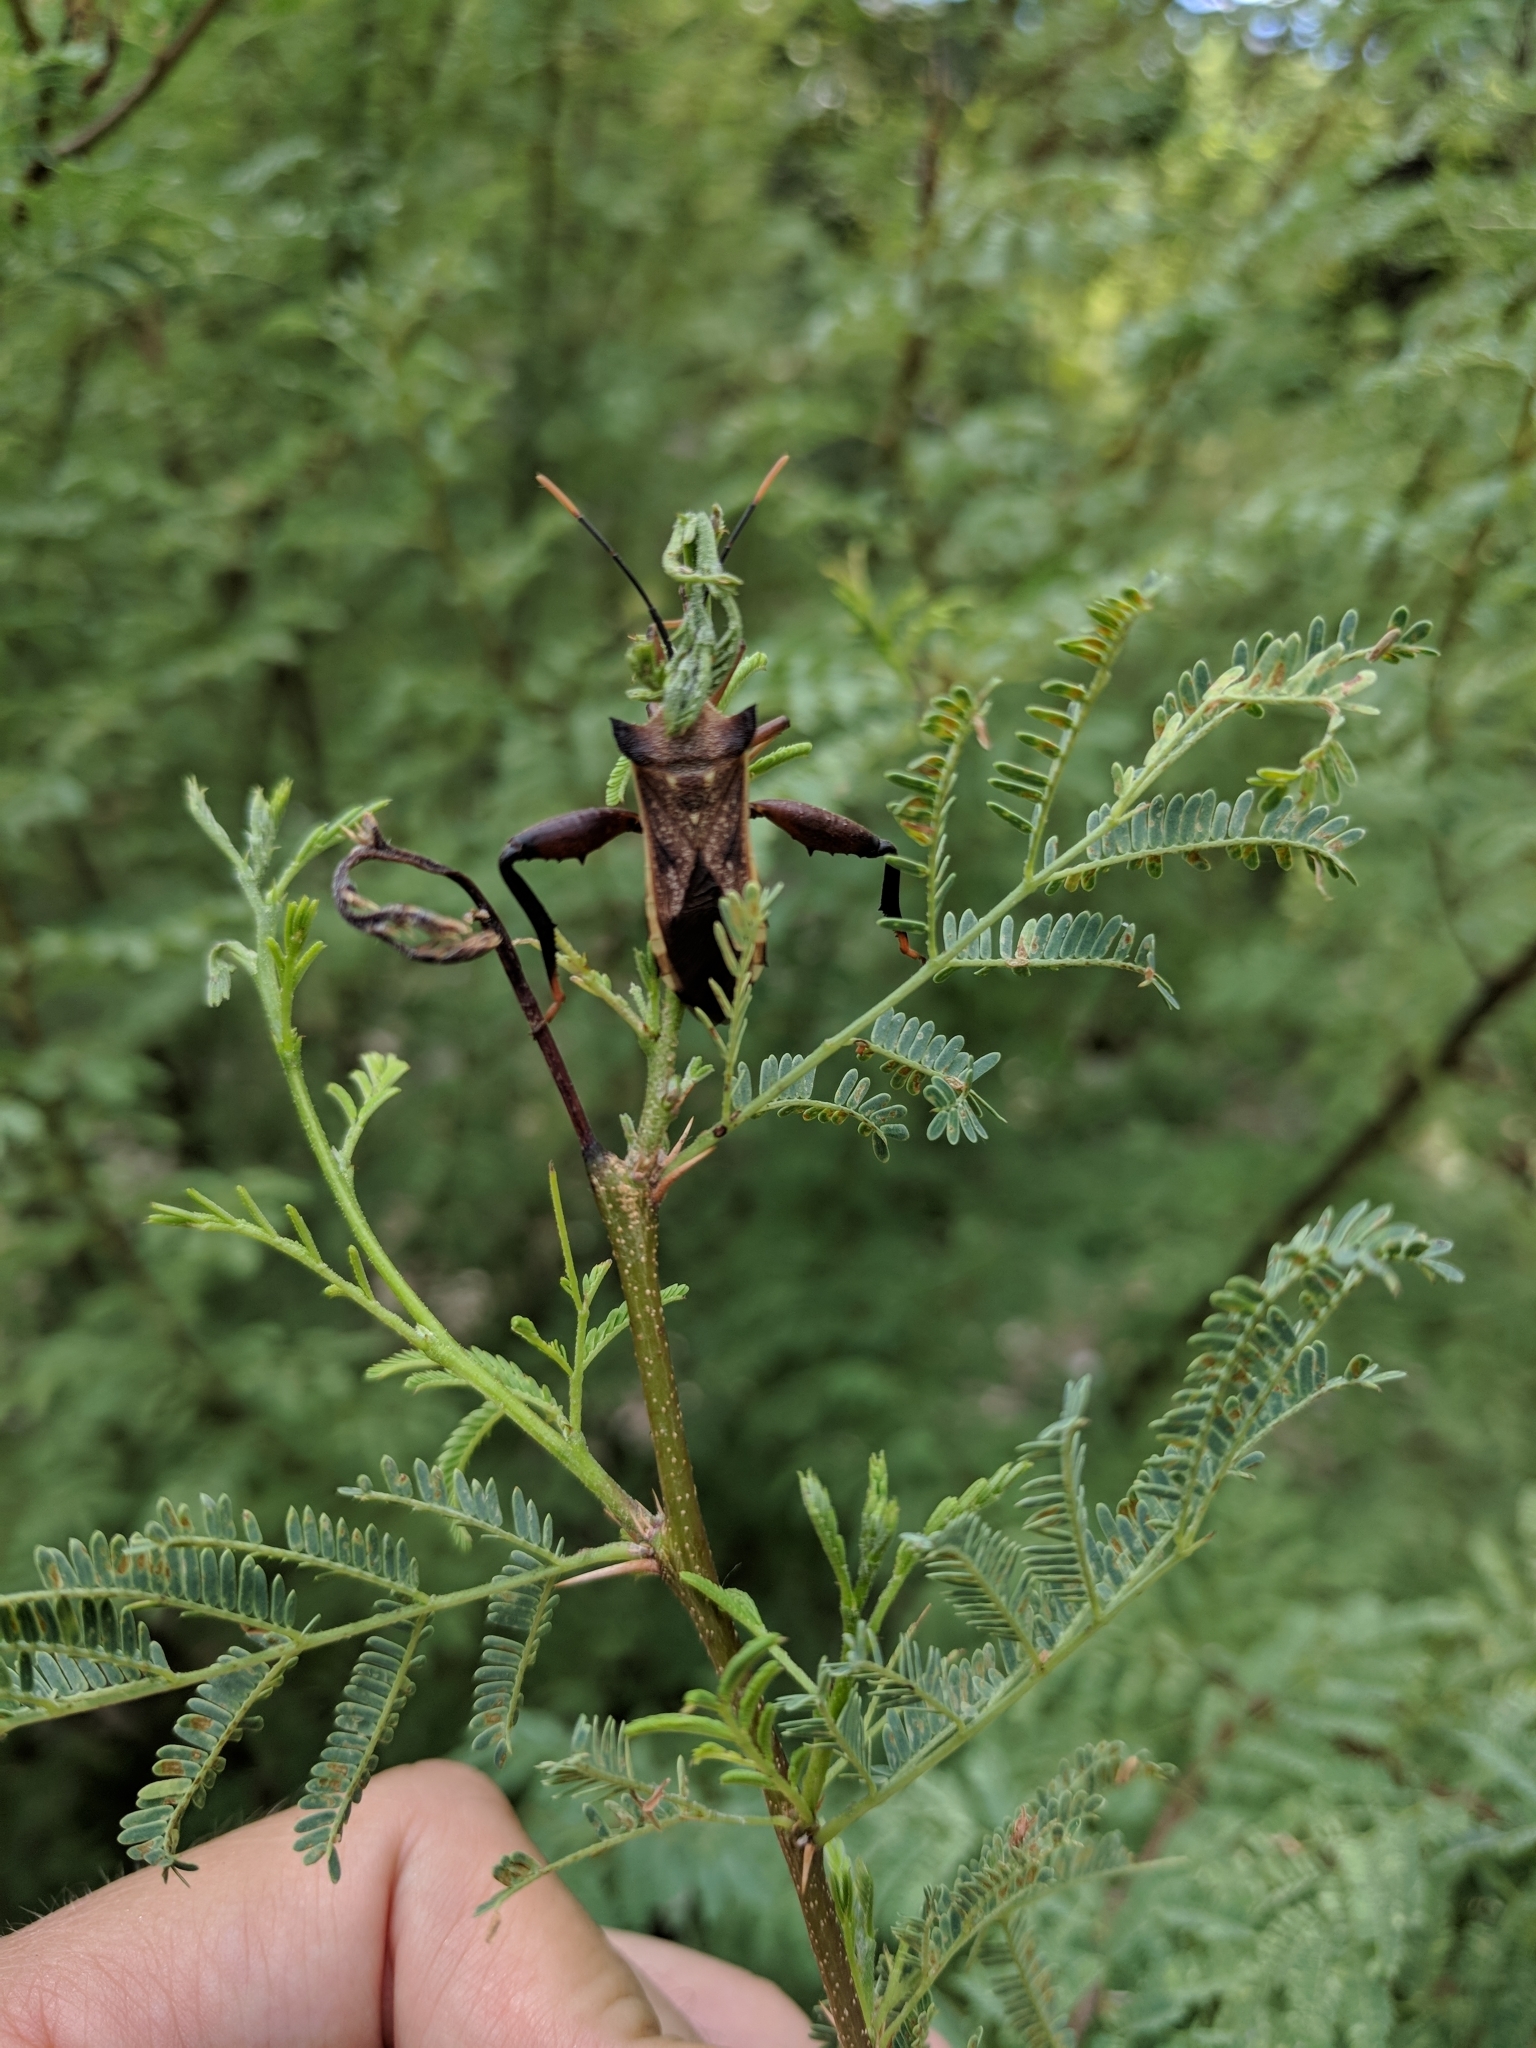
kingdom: Animalia
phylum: Arthropoda
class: Insecta
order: Hemiptera
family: Coreidae
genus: Mozena
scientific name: Mozena lunata
